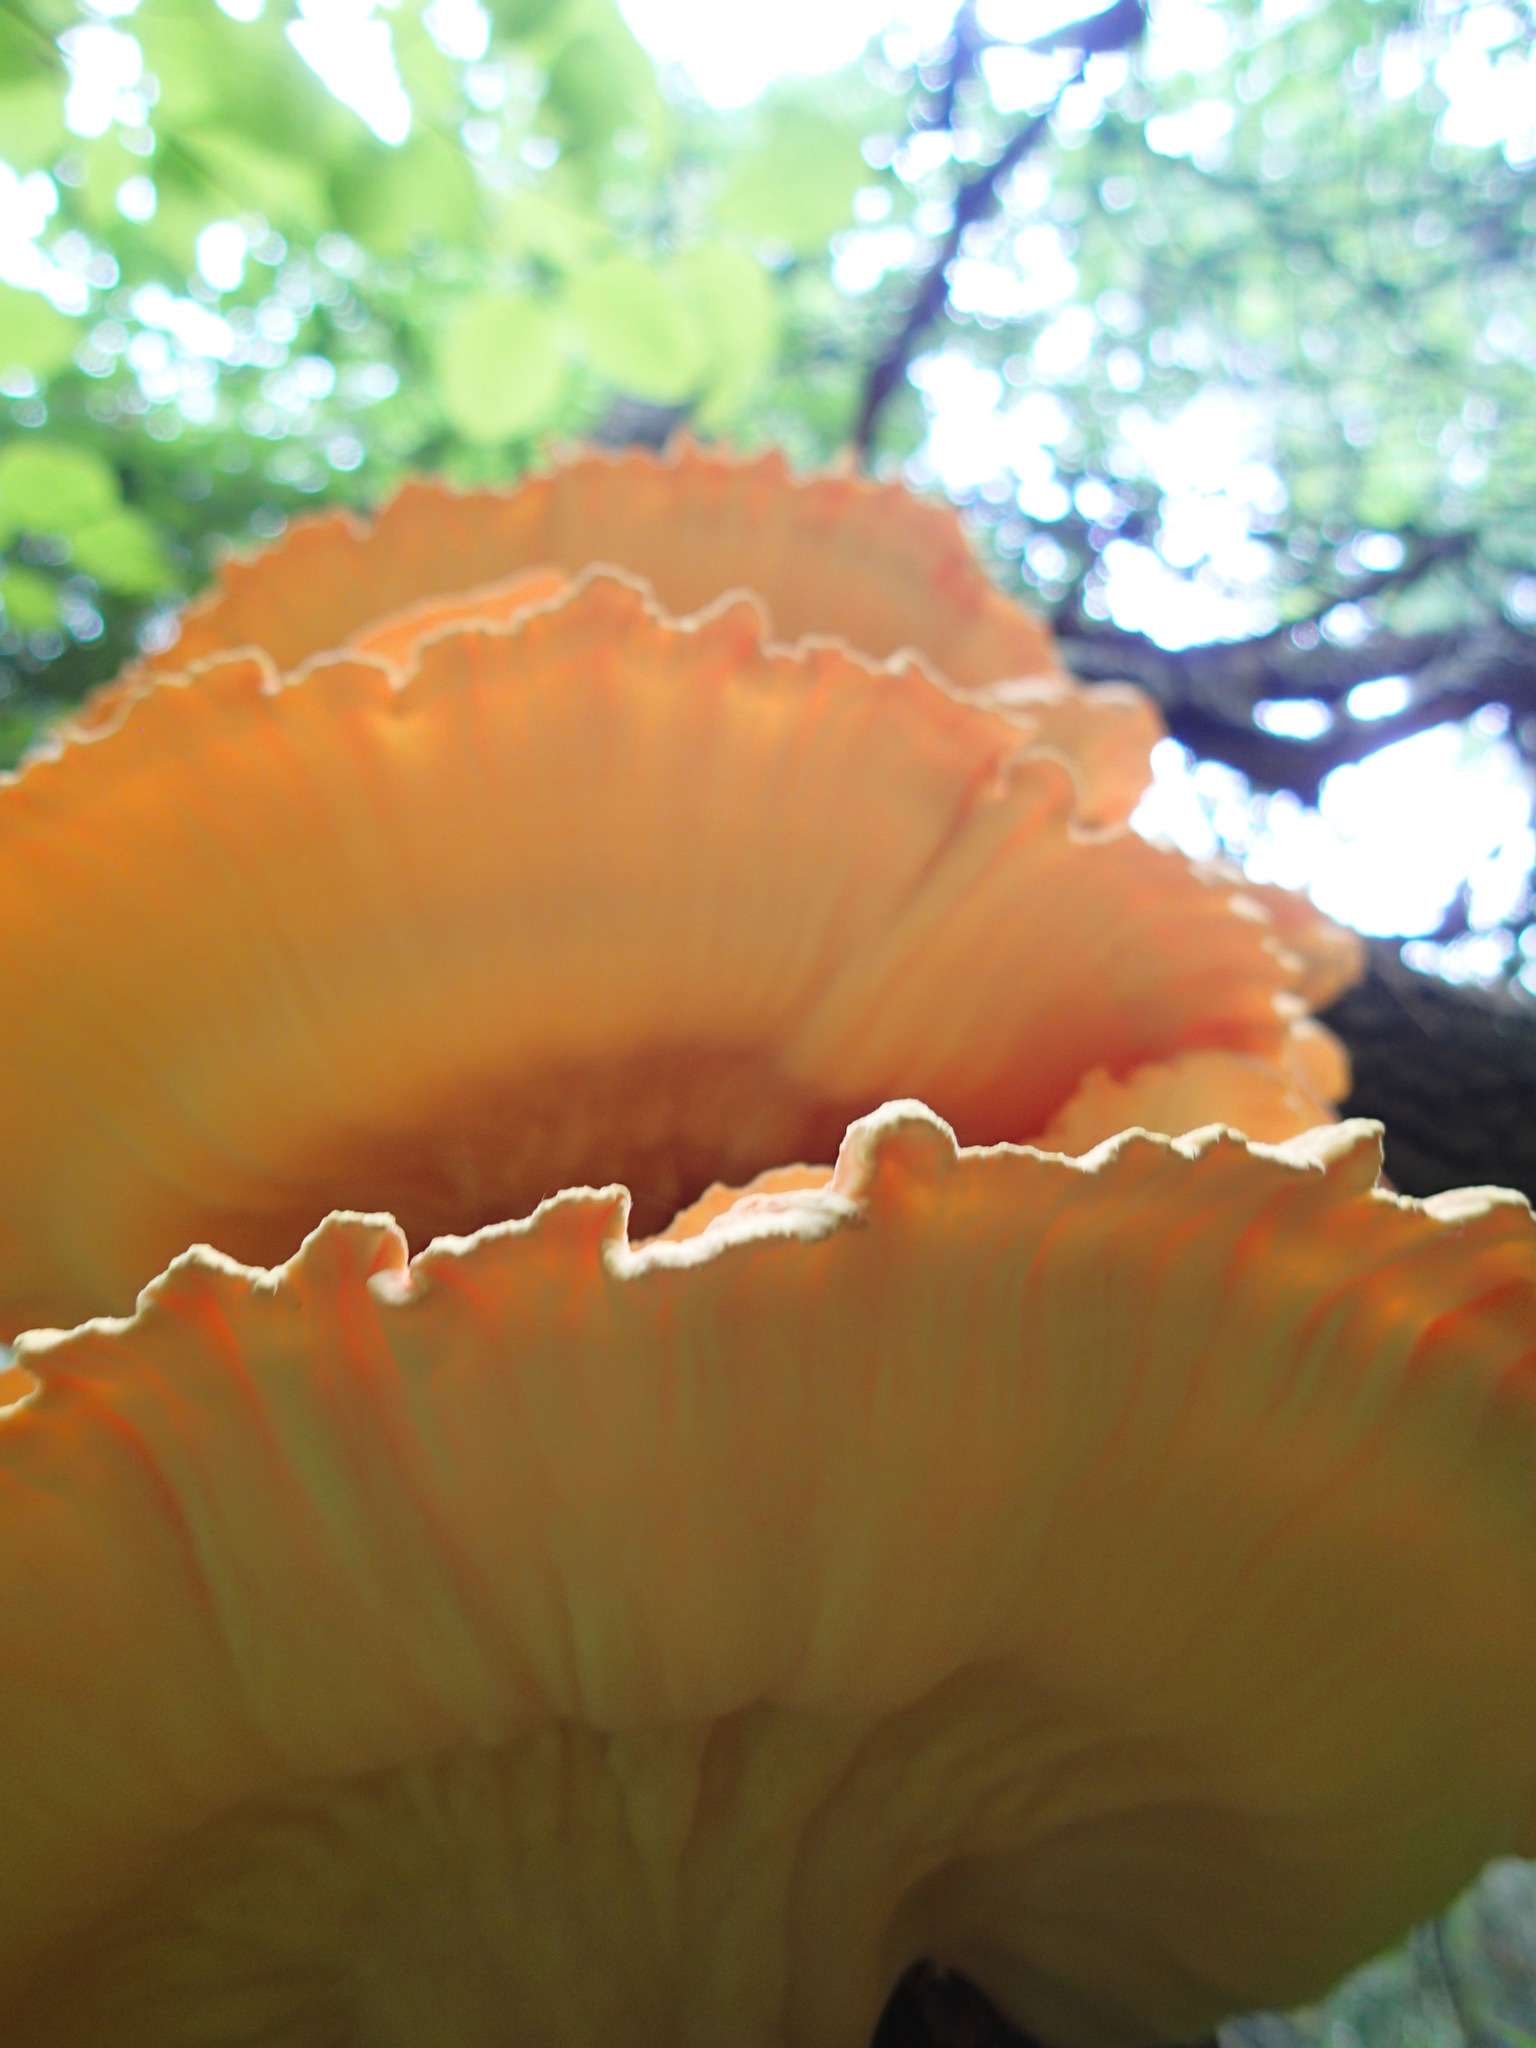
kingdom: Fungi
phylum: Basidiomycota
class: Agaricomycetes
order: Polyporales
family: Laetiporaceae
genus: Laetiporus
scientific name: Laetiporus sulphureus
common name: Chicken of the woods
